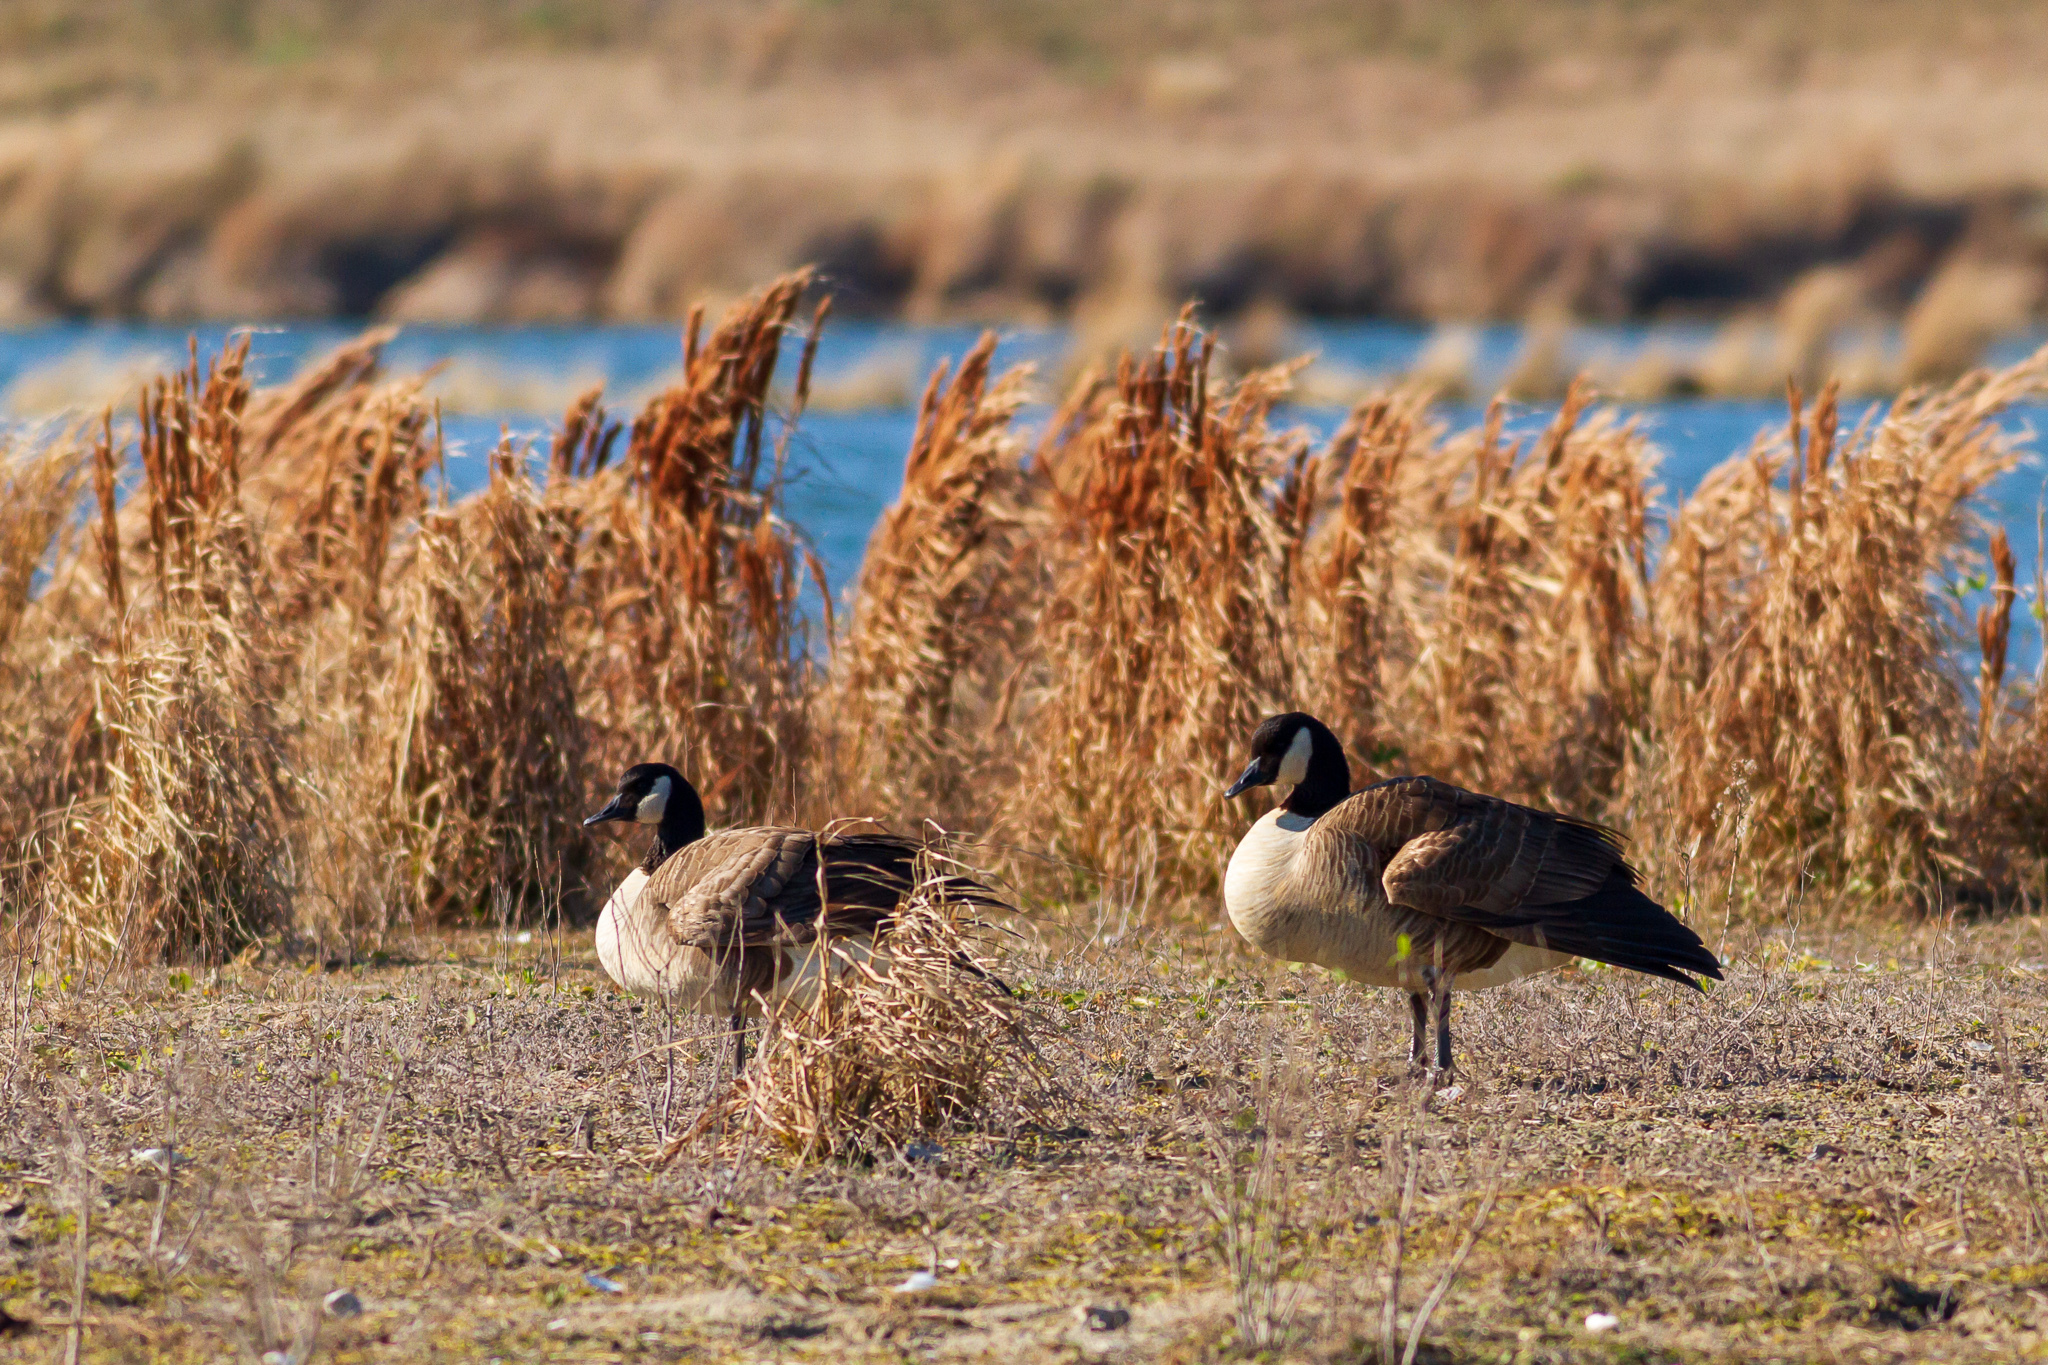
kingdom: Animalia
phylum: Chordata
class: Aves
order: Anseriformes
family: Anatidae
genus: Branta
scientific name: Branta canadensis
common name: Canada goose
